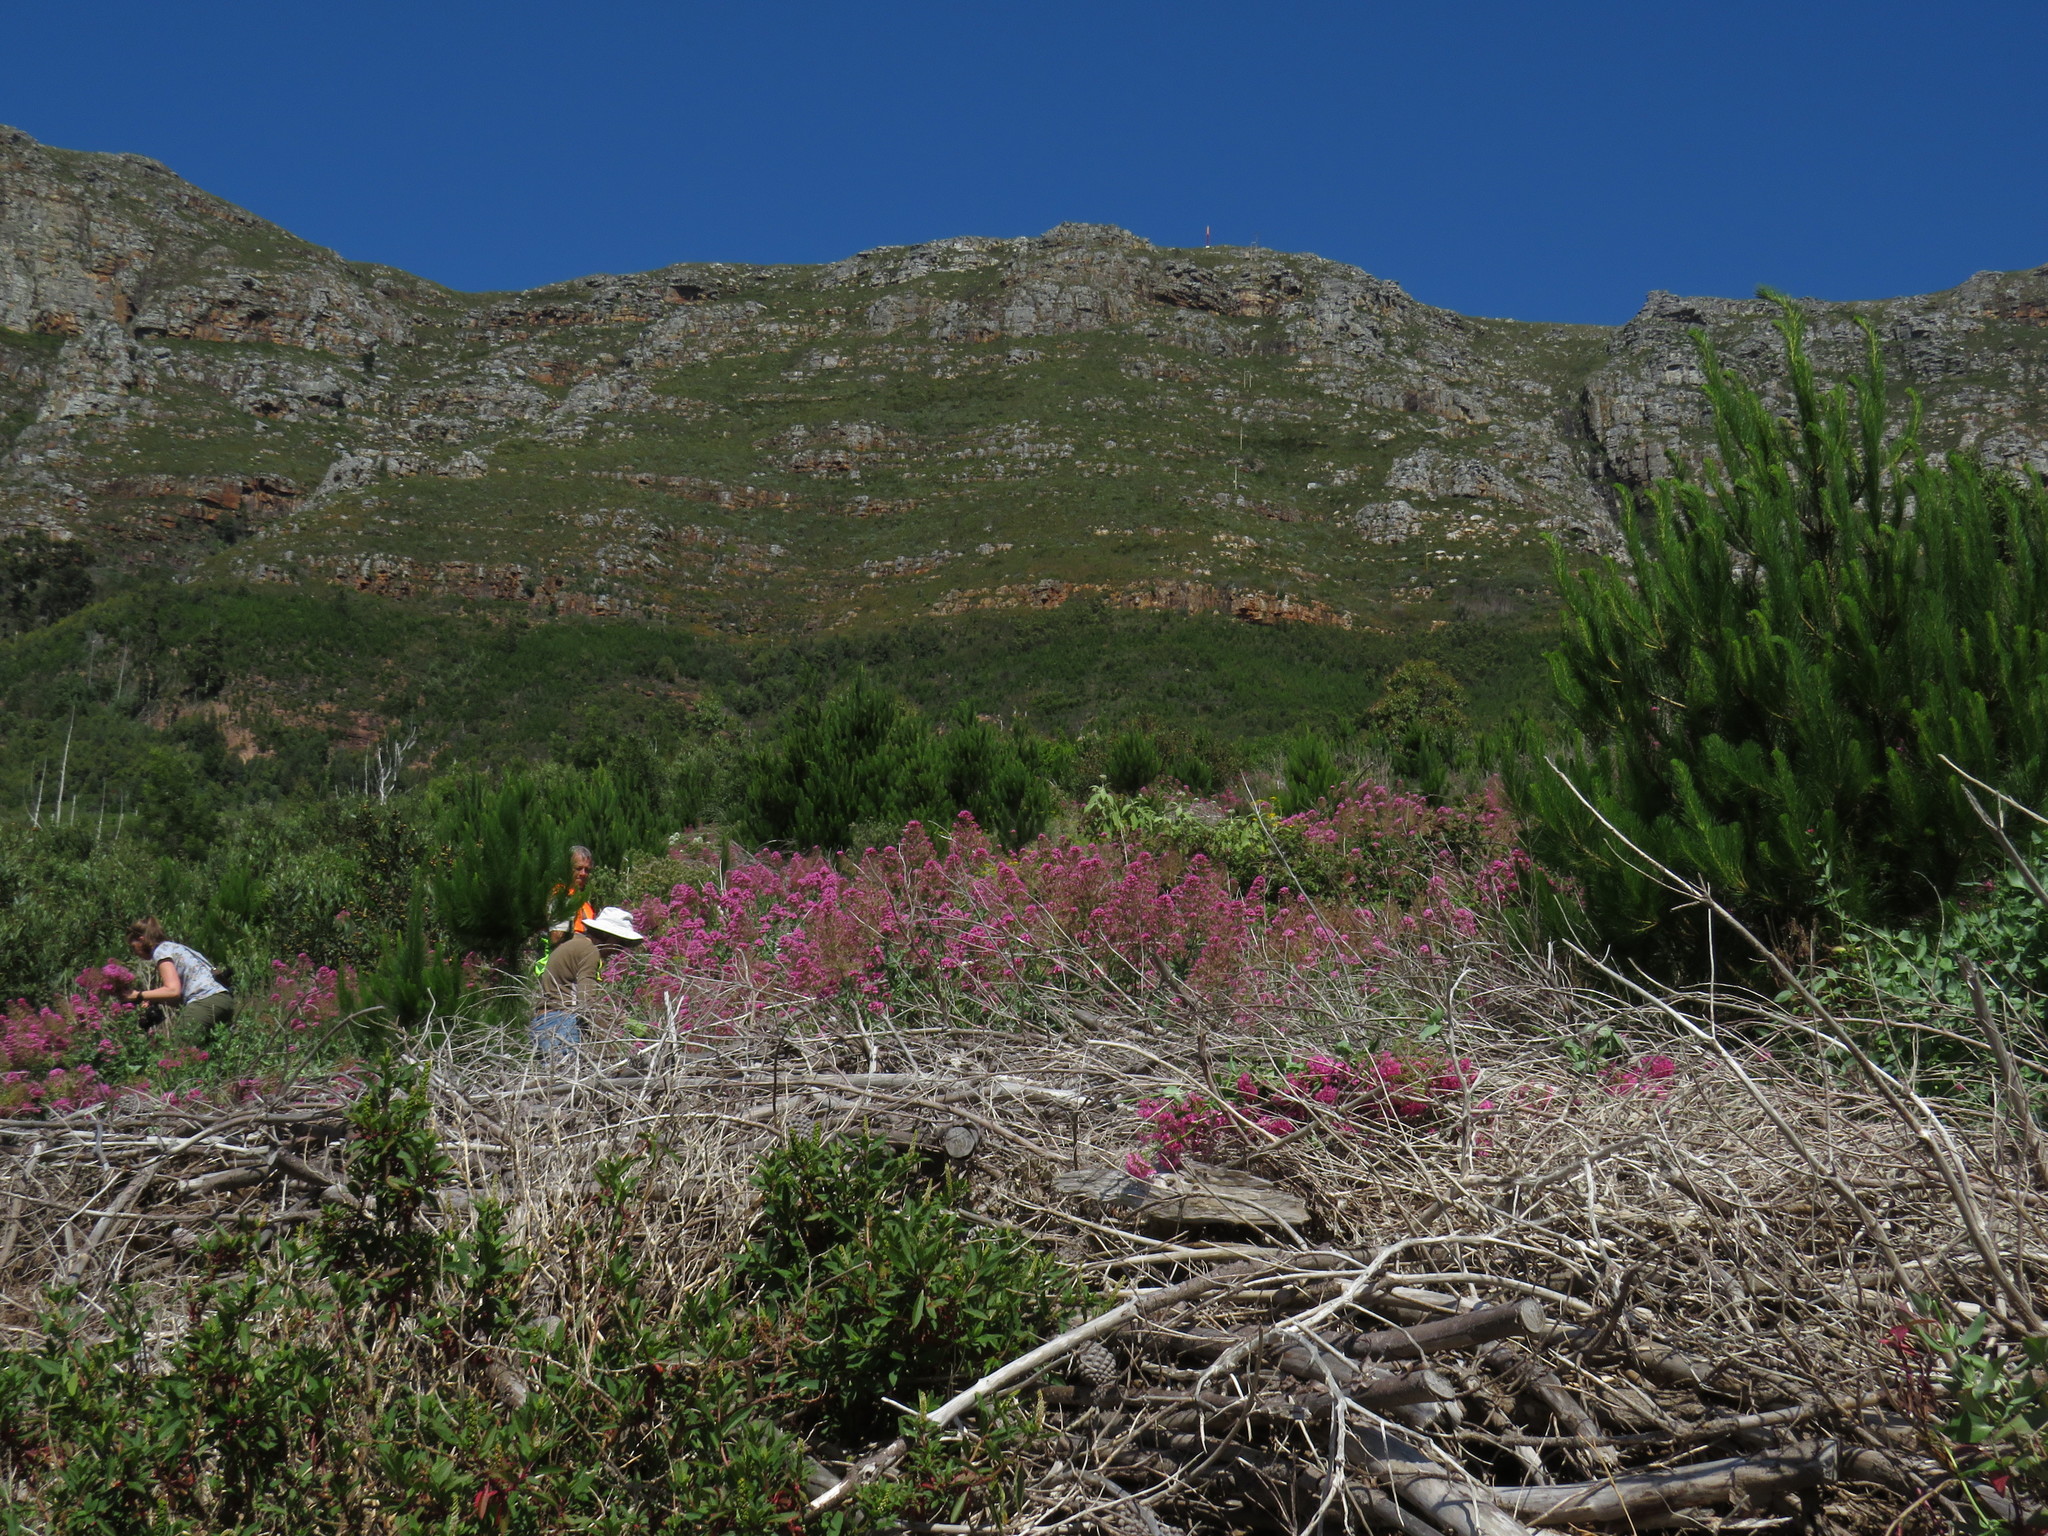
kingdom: Plantae
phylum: Tracheophyta
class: Magnoliopsida
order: Solanales
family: Solanaceae
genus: Solanum
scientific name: Solanum mauritianum
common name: Earleaf nightshade
